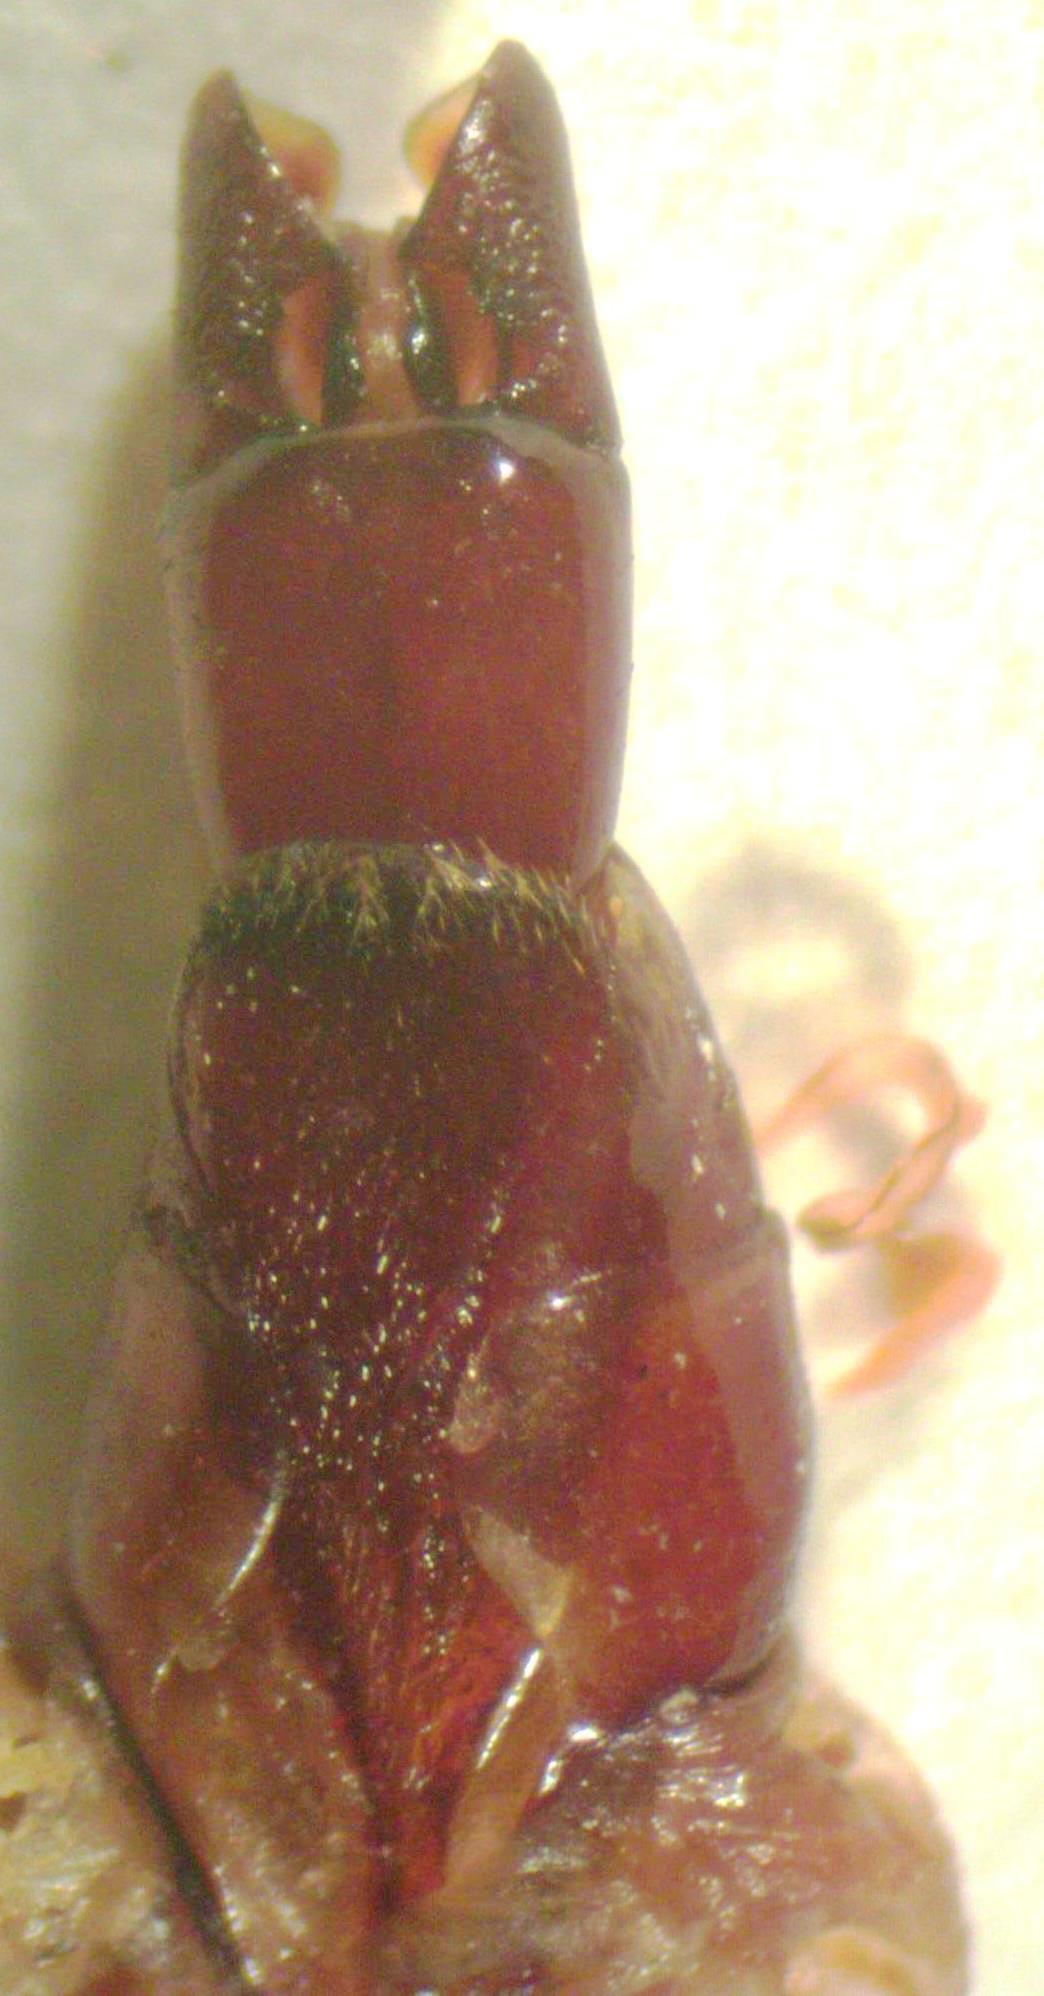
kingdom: Animalia
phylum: Arthropoda
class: Insecta
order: Coleoptera
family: Lucanidae
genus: Epidorcus
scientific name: Epidorcus denticulatus
